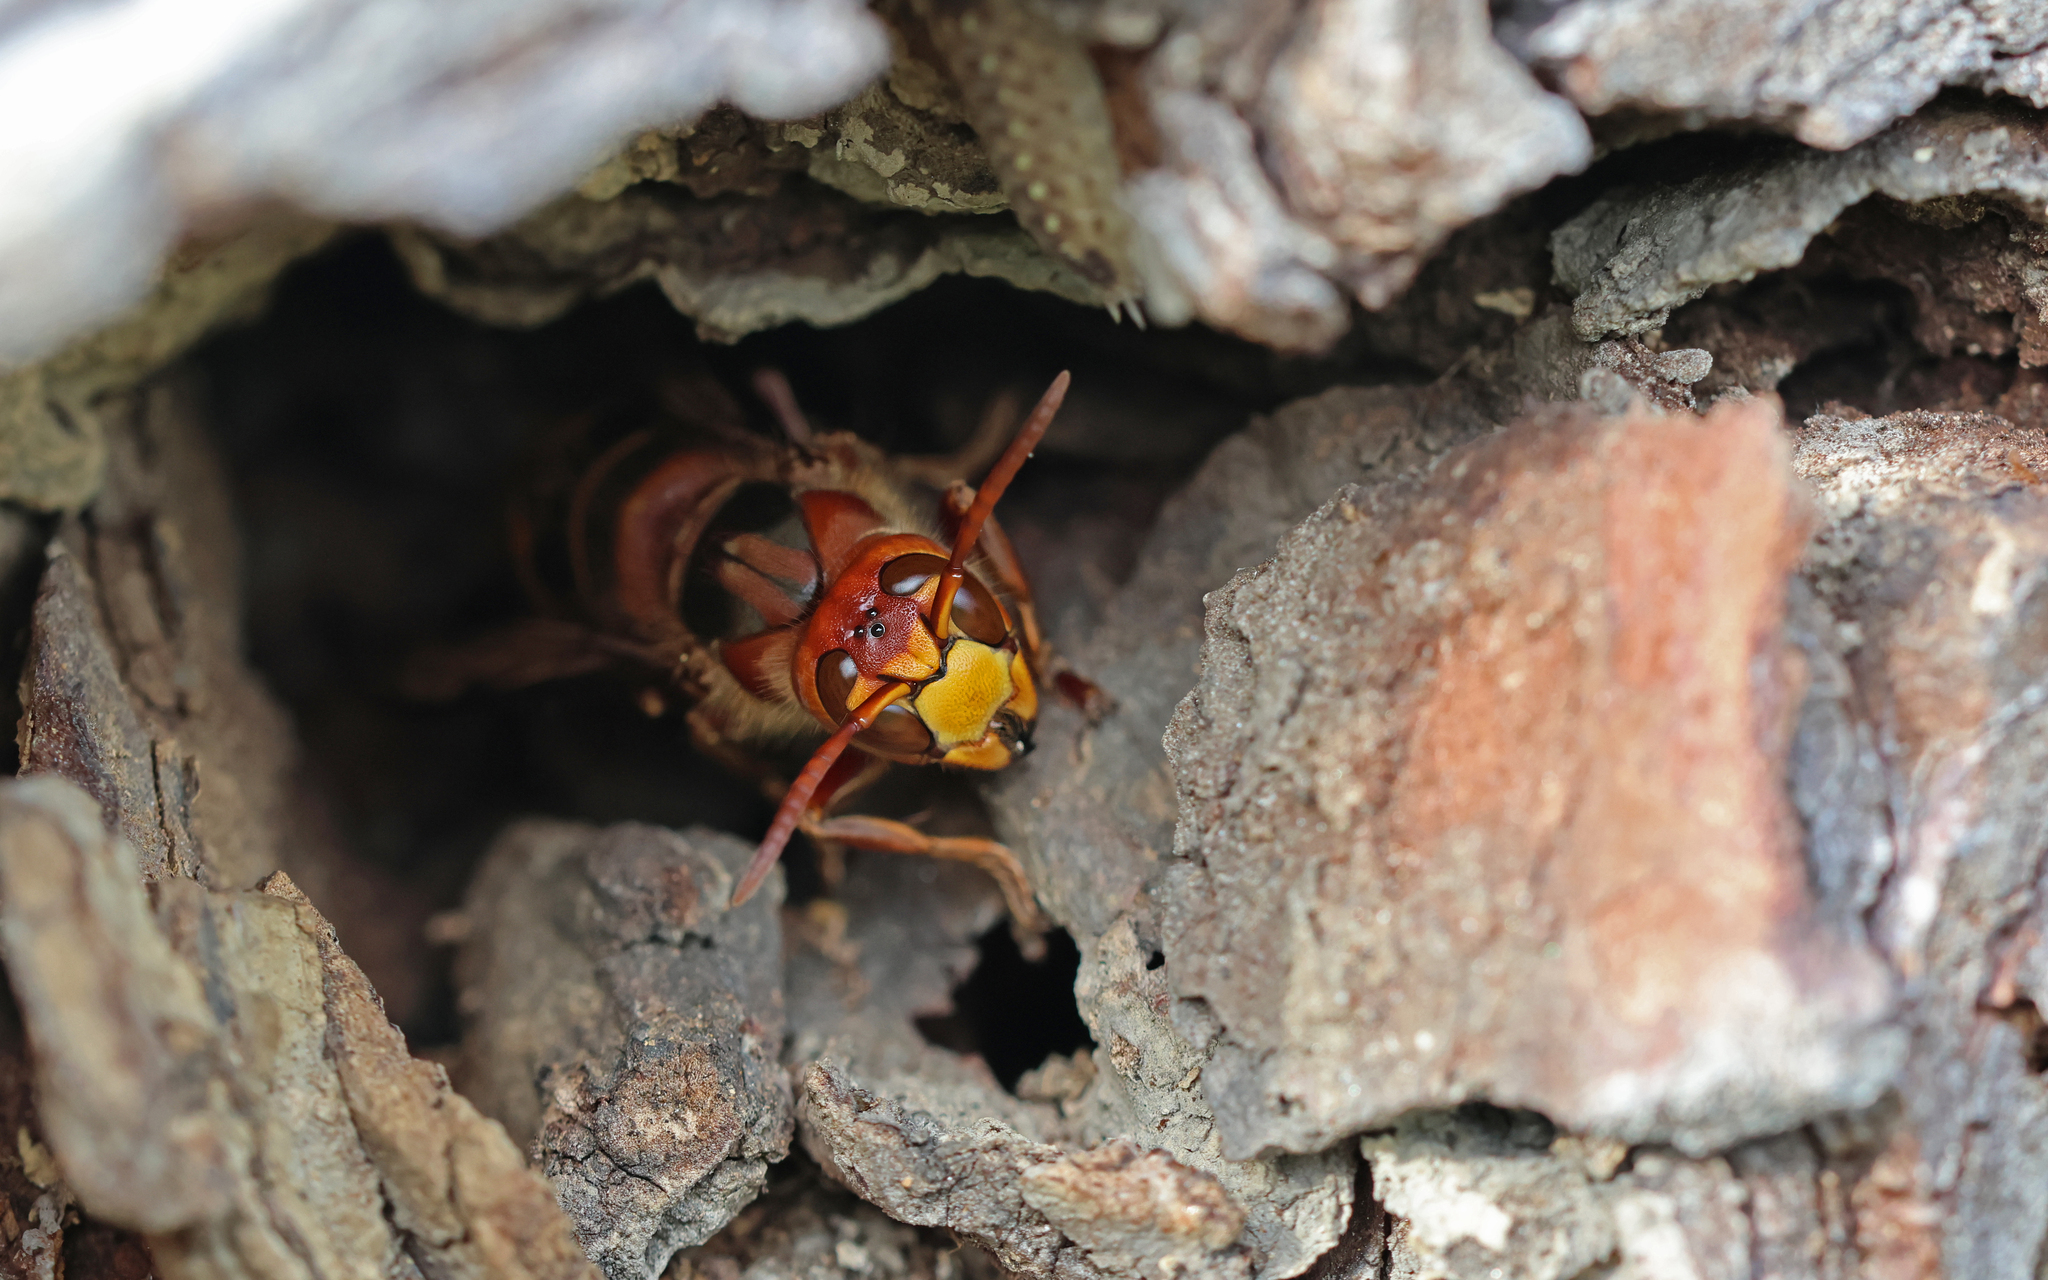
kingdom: Animalia
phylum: Arthropoda
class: Insecta
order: Hymenoptera
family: Vespidae
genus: Vespa
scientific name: Vespa crabro
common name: Hornet
